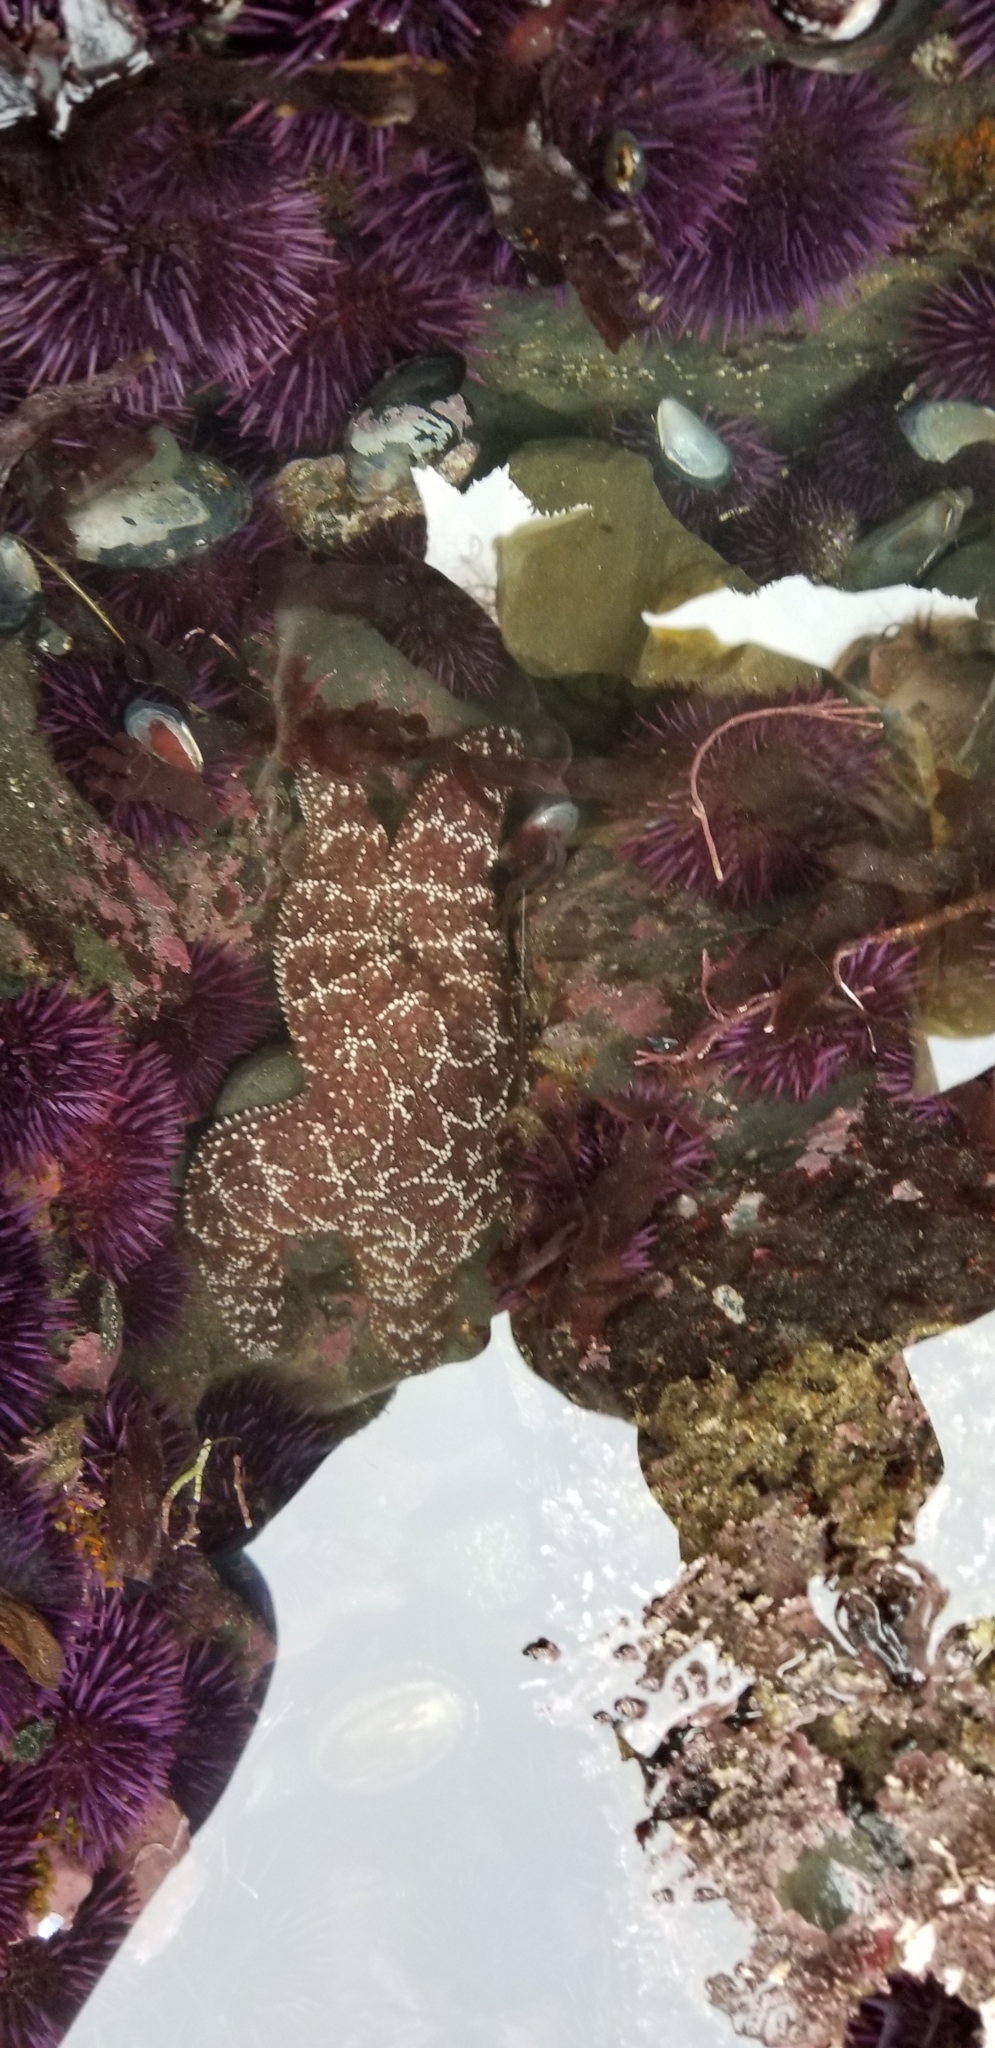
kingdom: Animalia
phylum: Echinodermata
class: Asteroidea
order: Forcipulatida
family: Asteriidae
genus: Pisaster
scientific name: Pisaster ochraceus
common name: Ochre stars
